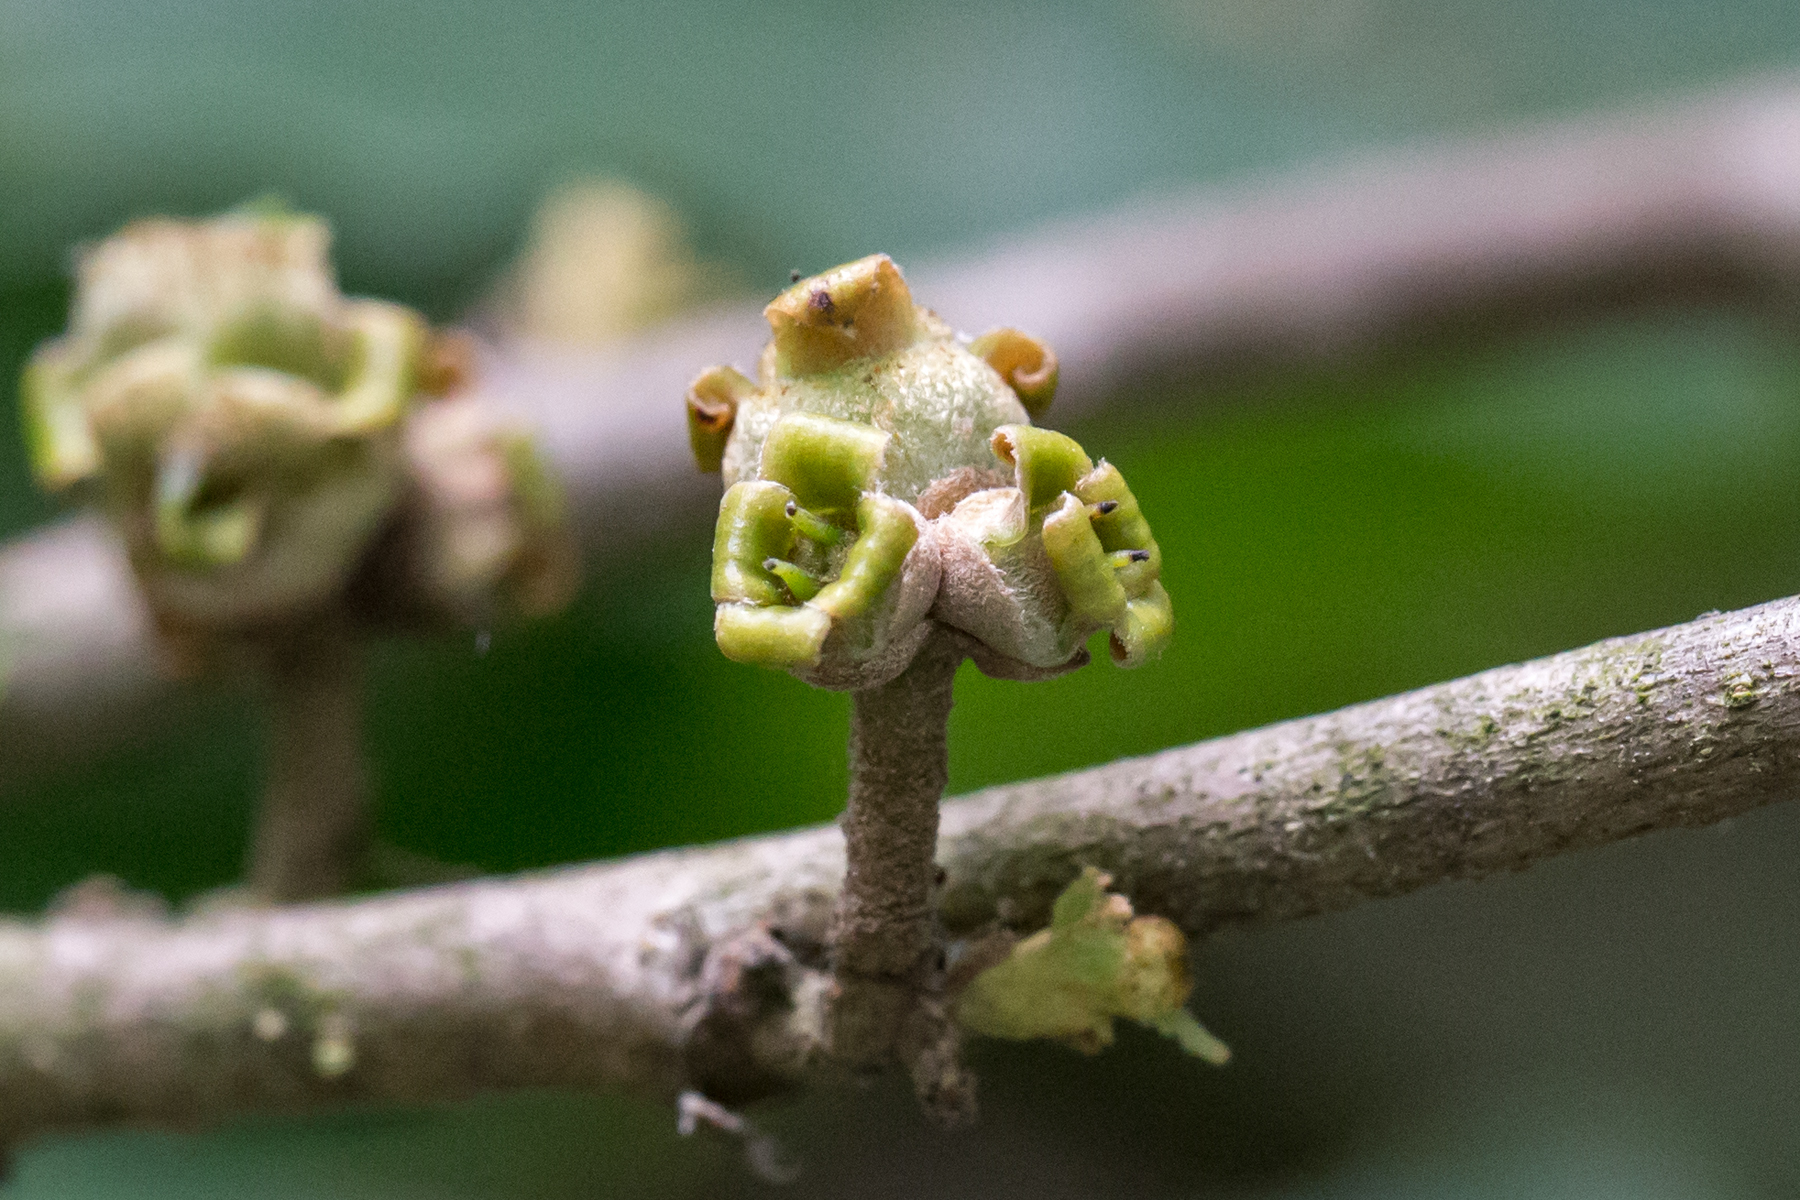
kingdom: Plantae
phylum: Tracheophyta
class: Magnoliopsida
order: Saxifragales
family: Hamamelidaceae
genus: Hamamelis
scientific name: Hamamelis virginiana
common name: Witch-hazel
